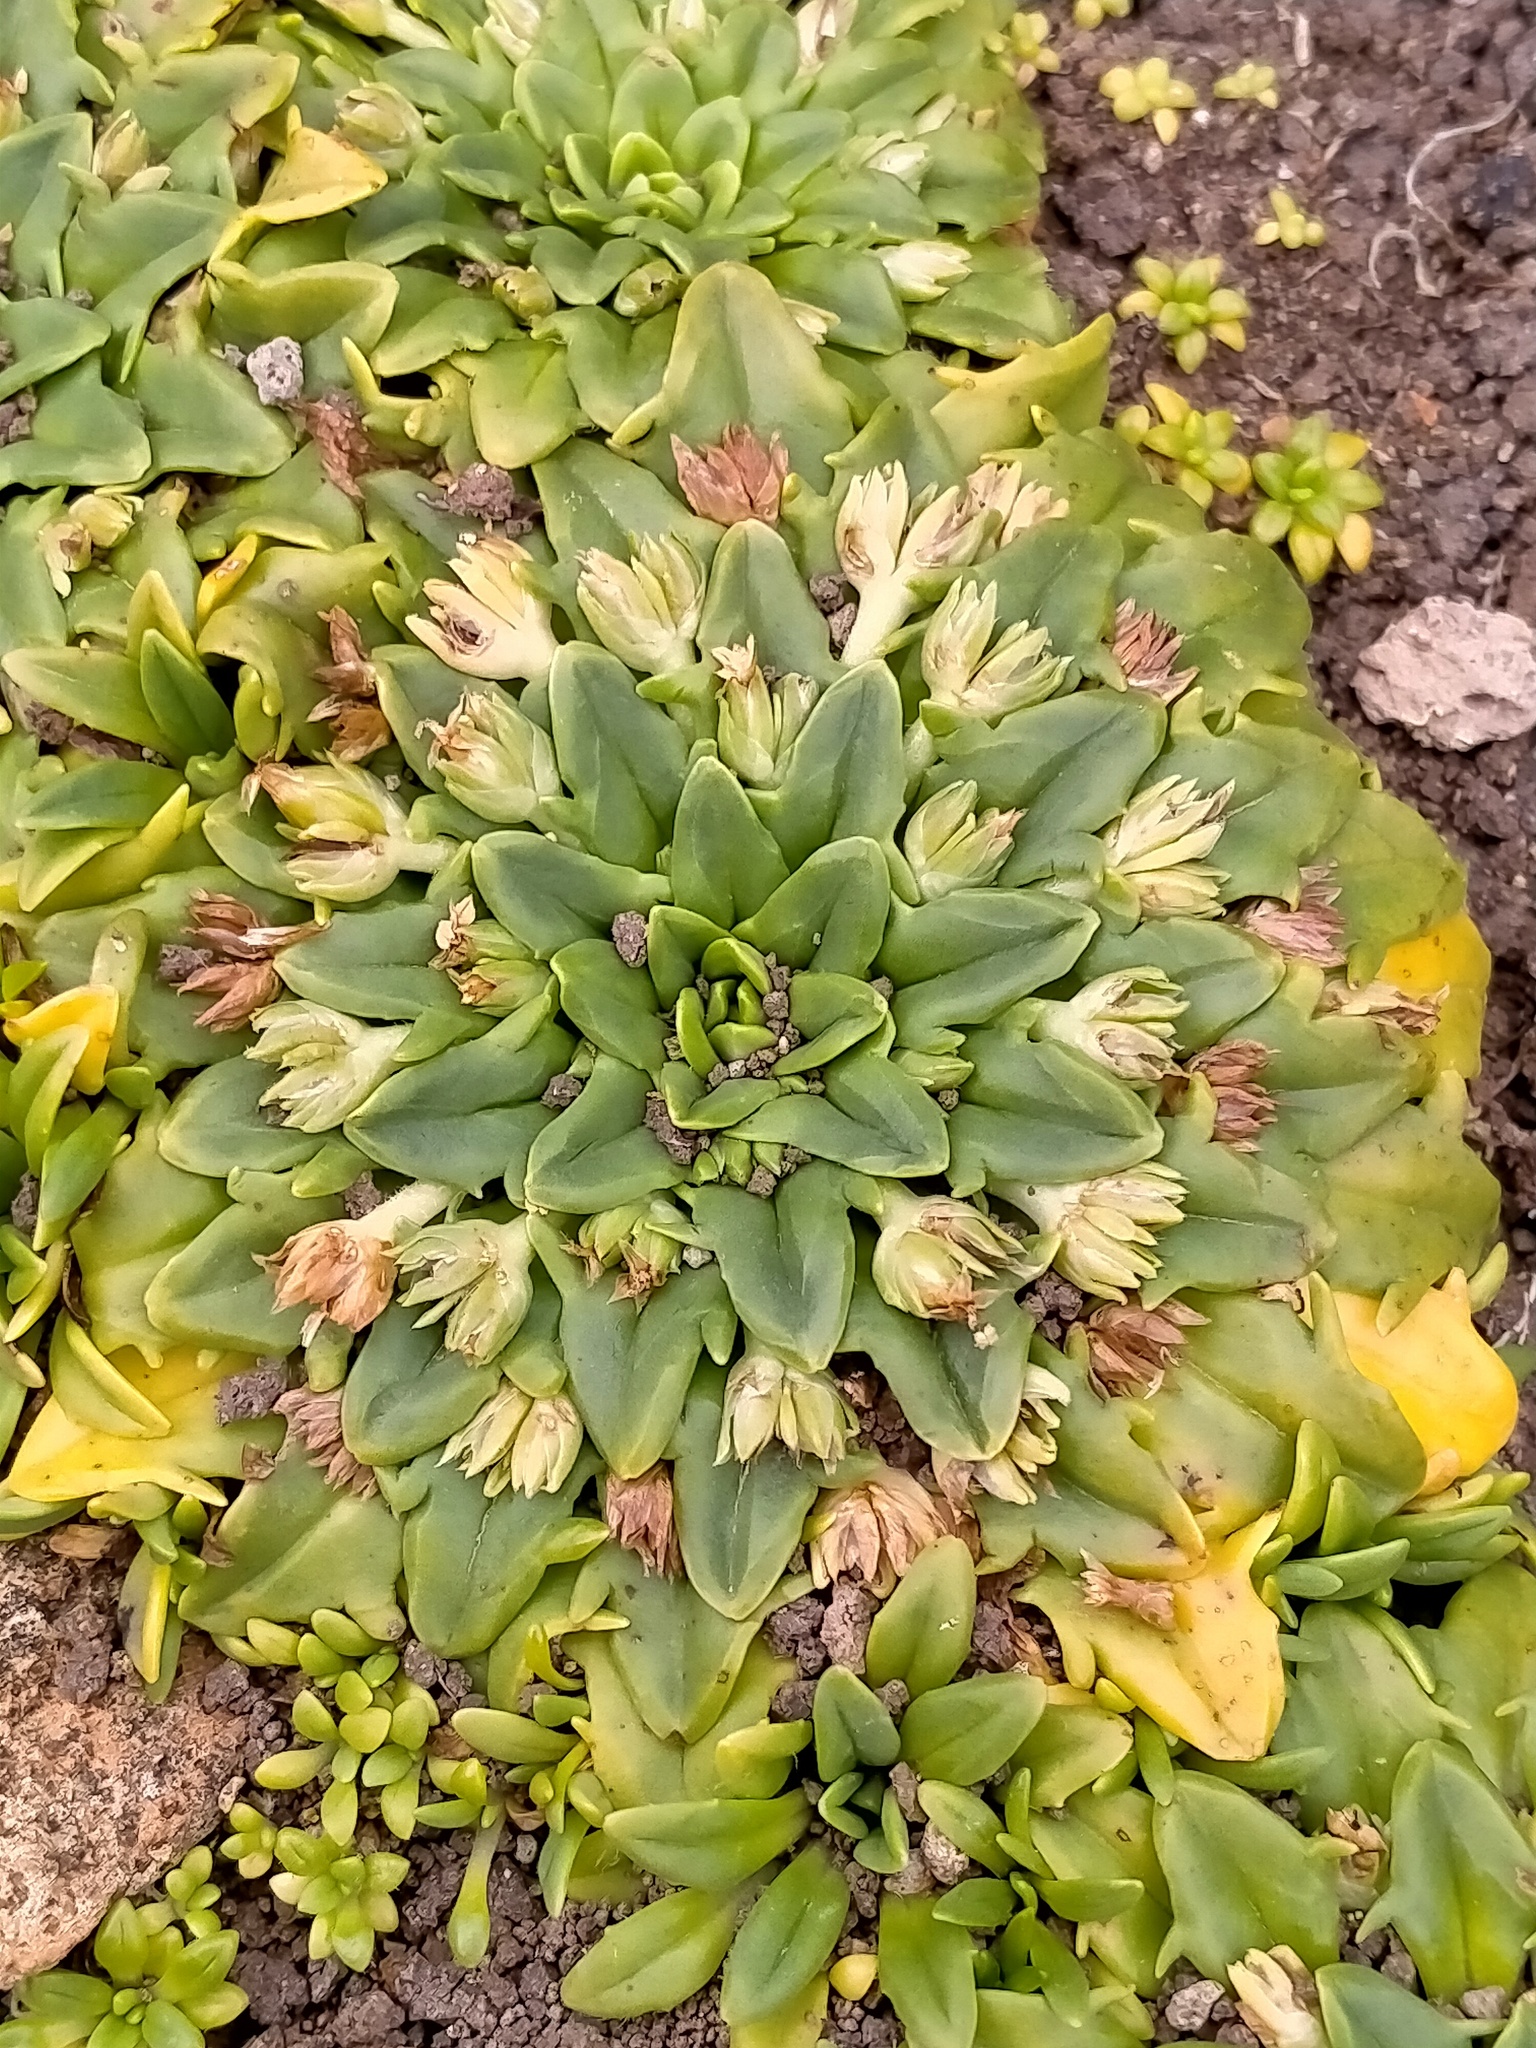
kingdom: Plantae
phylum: Tracheophyta
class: Magnoliopsida
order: Lamiales
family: Plantaginaceae
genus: Plantago
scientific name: Plantago brownii
